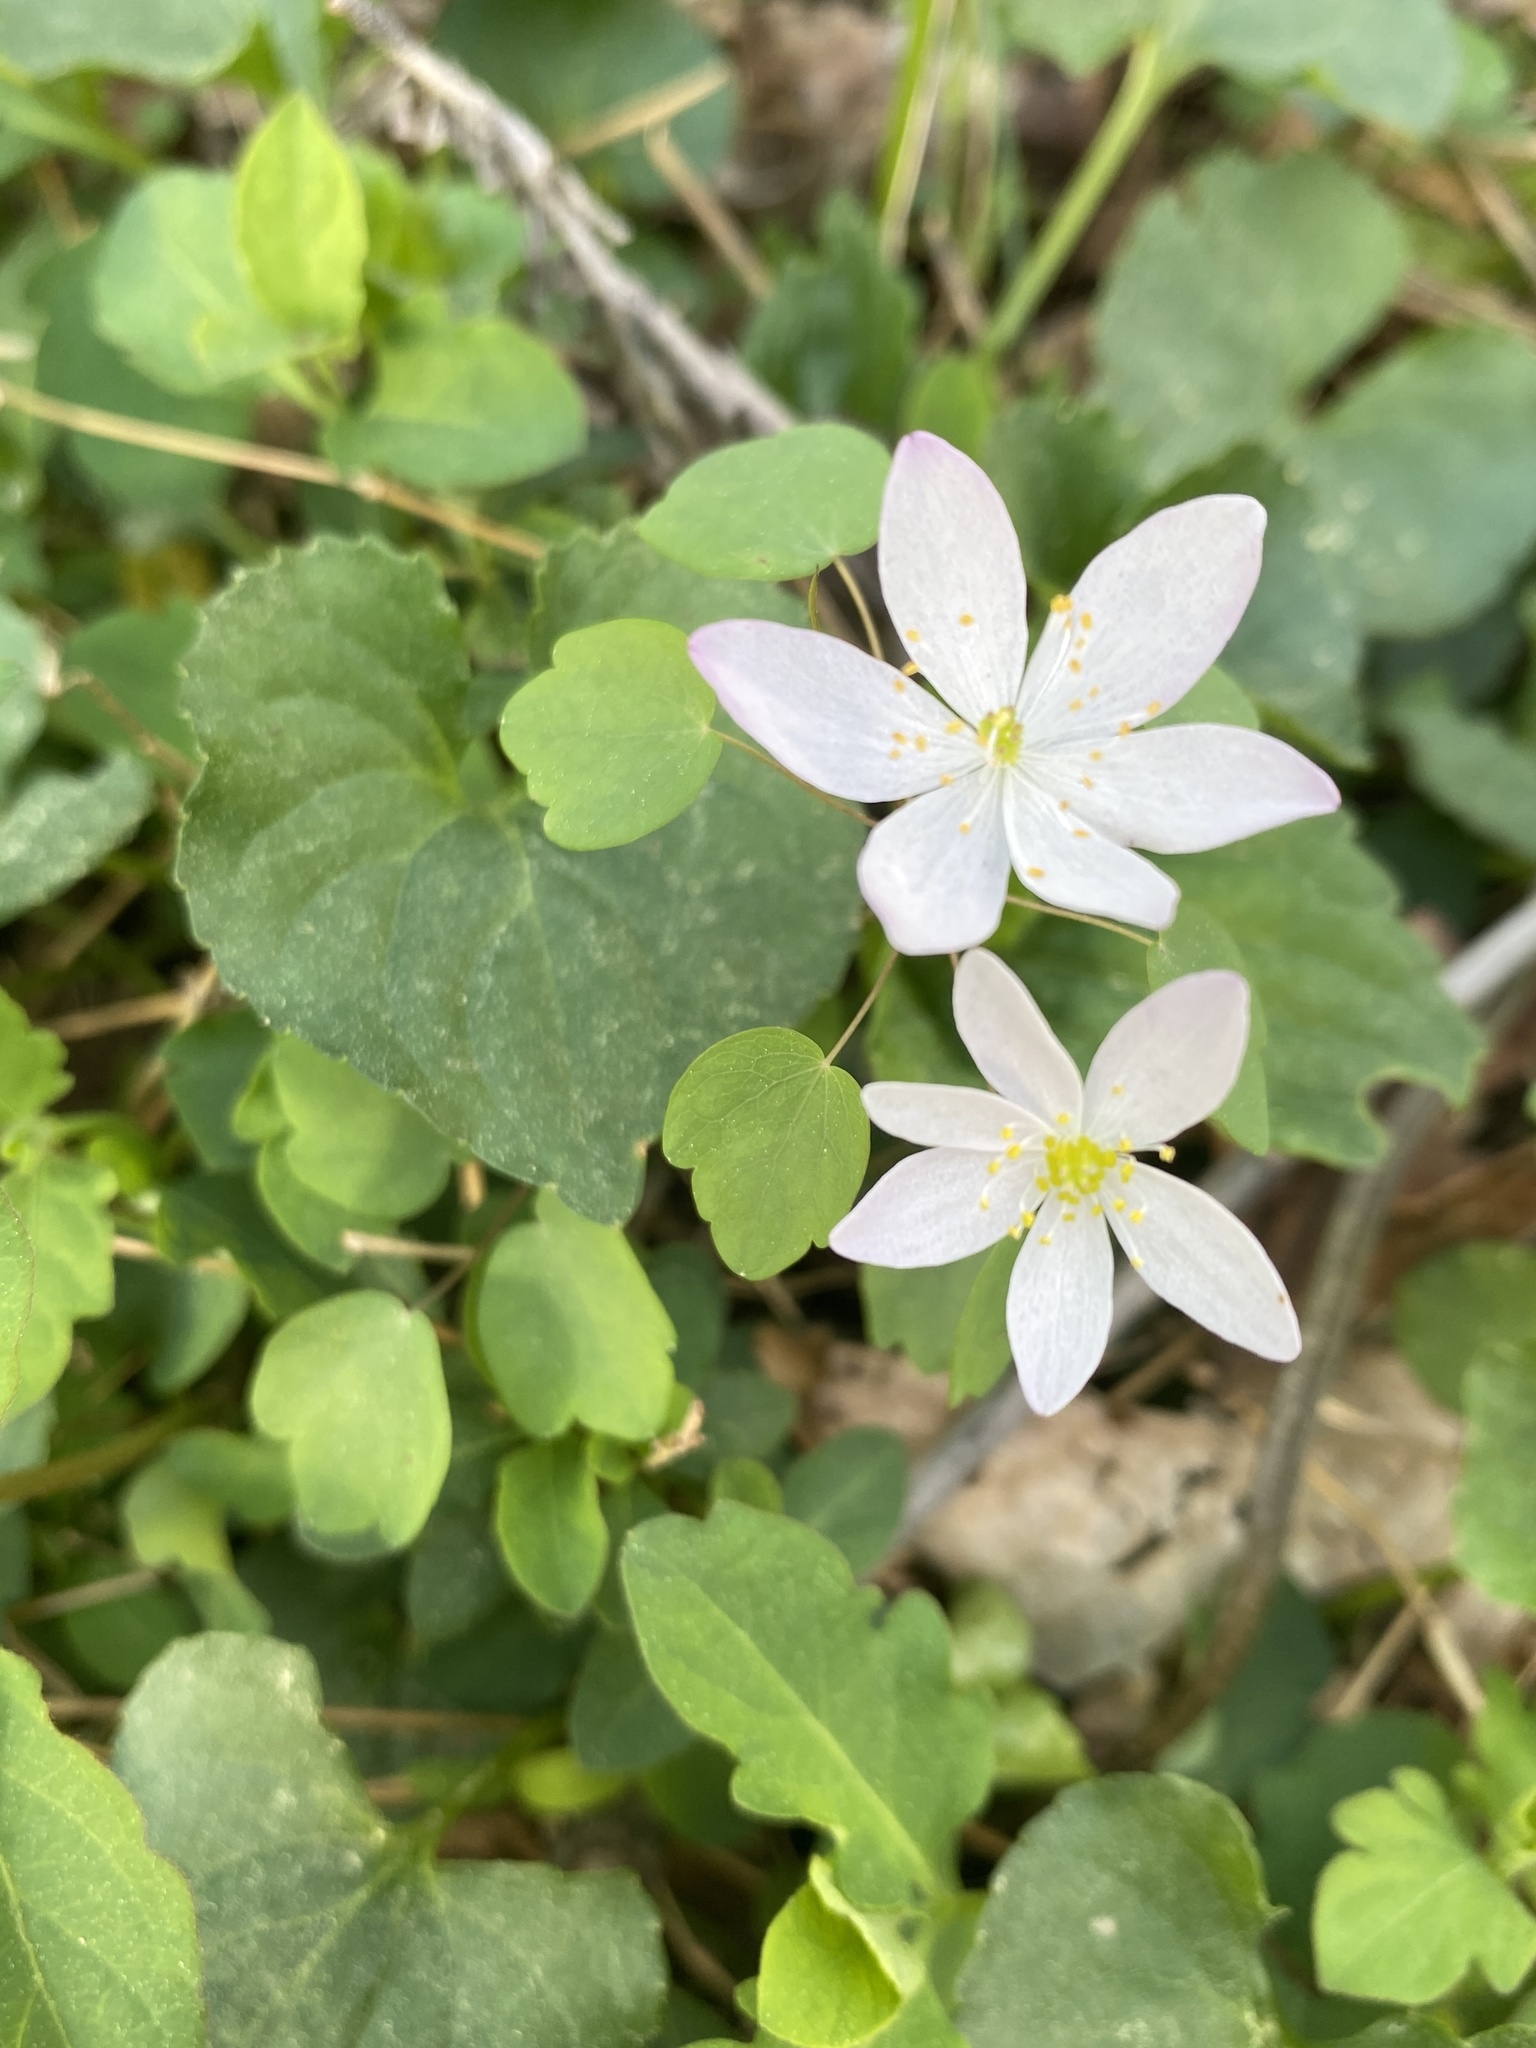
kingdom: Plantae
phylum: Tracheophyta
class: Magnoliopsida
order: Ranunculales
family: Ranunculaceae
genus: Thalictrum
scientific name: Thalictrum thalictroides
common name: Rue-anemone
